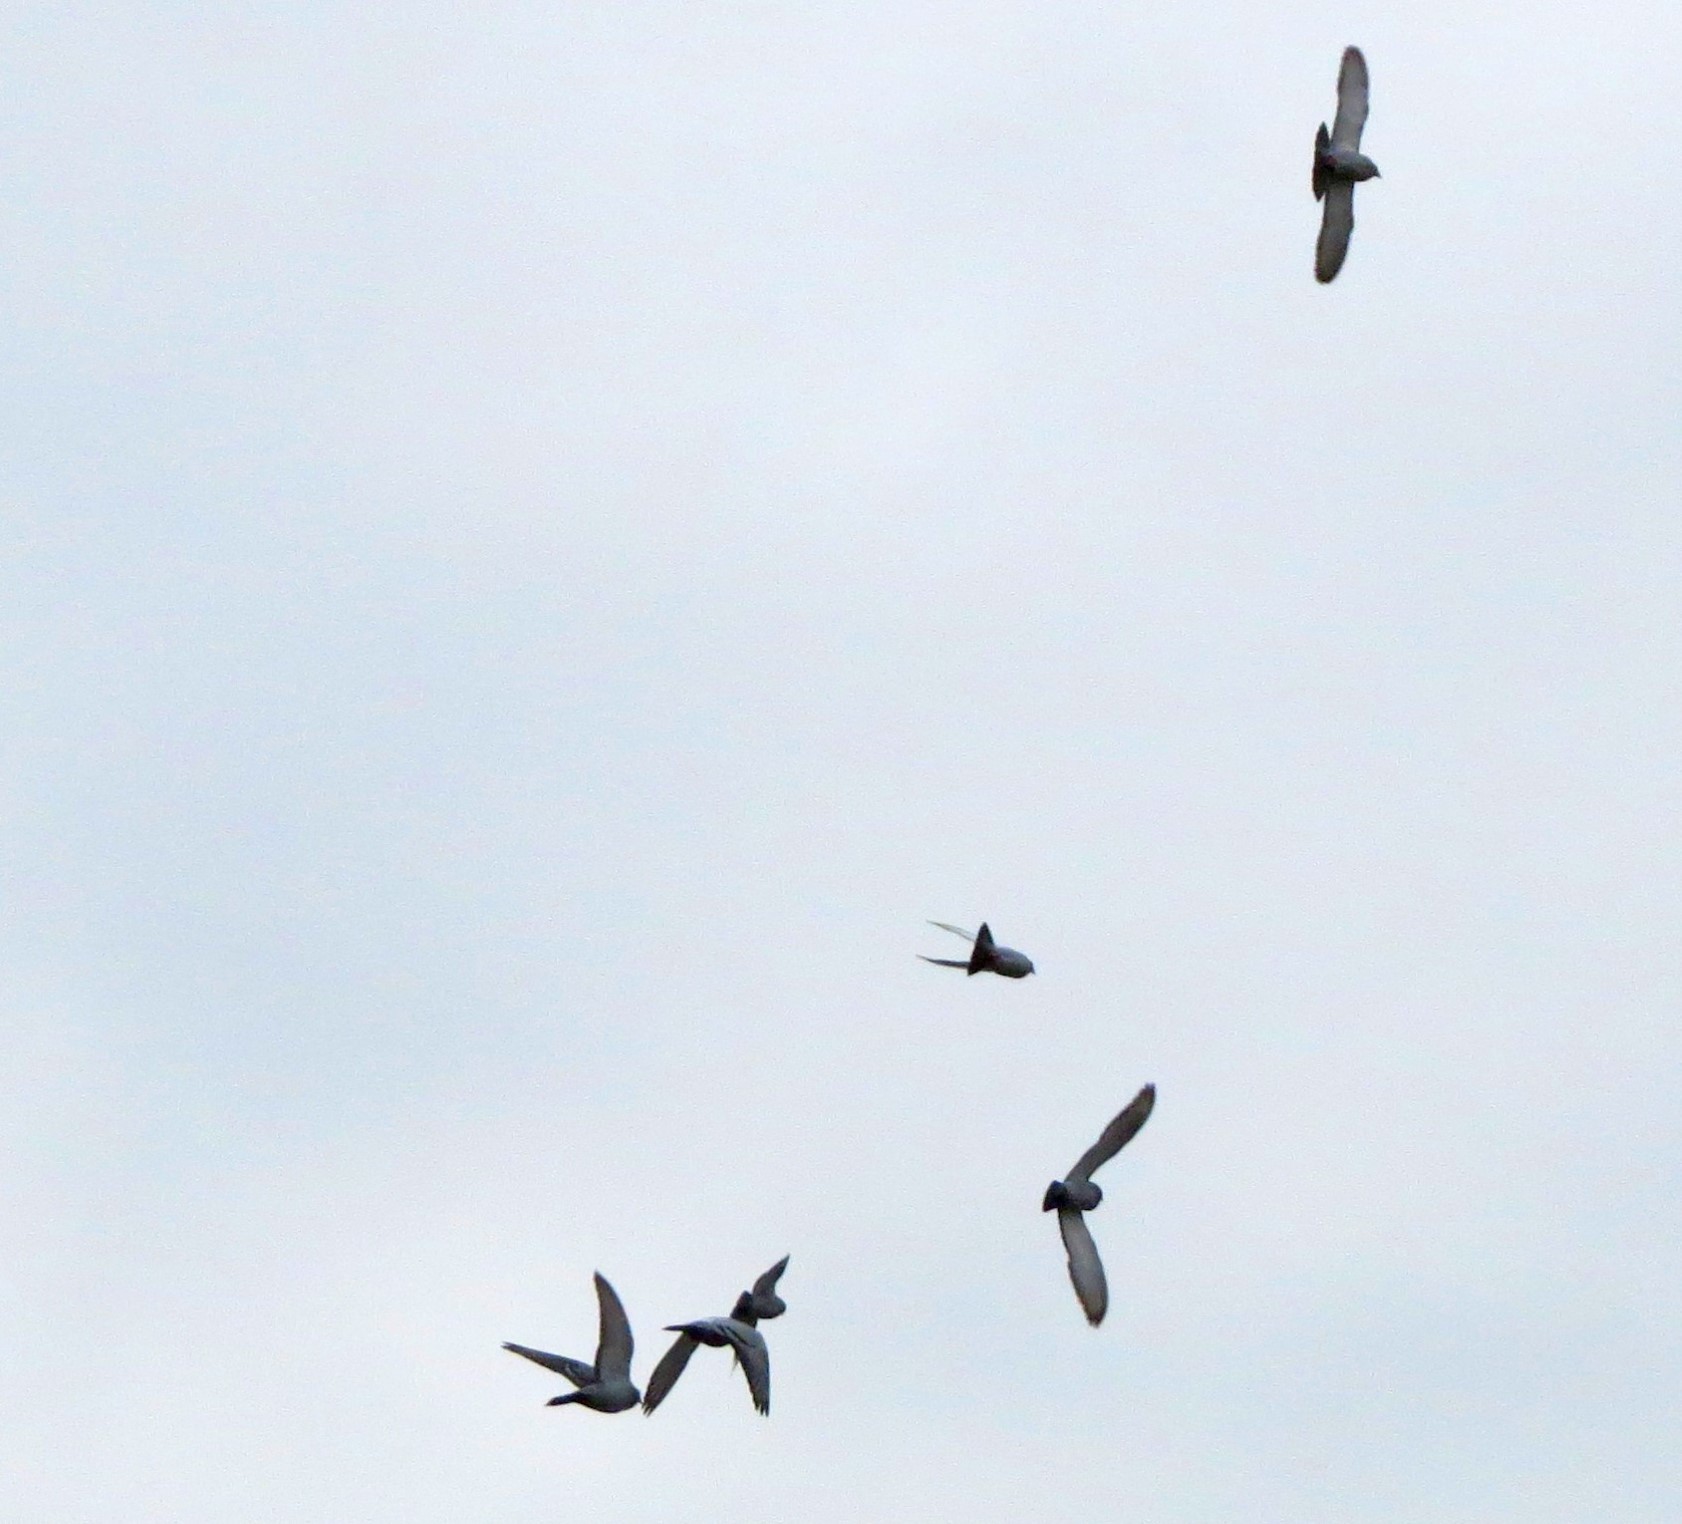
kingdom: Animalia
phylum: Chordata
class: Aves
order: Columbiformes
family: Columbidae
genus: Columba
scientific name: Columba livia
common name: Rock pigeon
